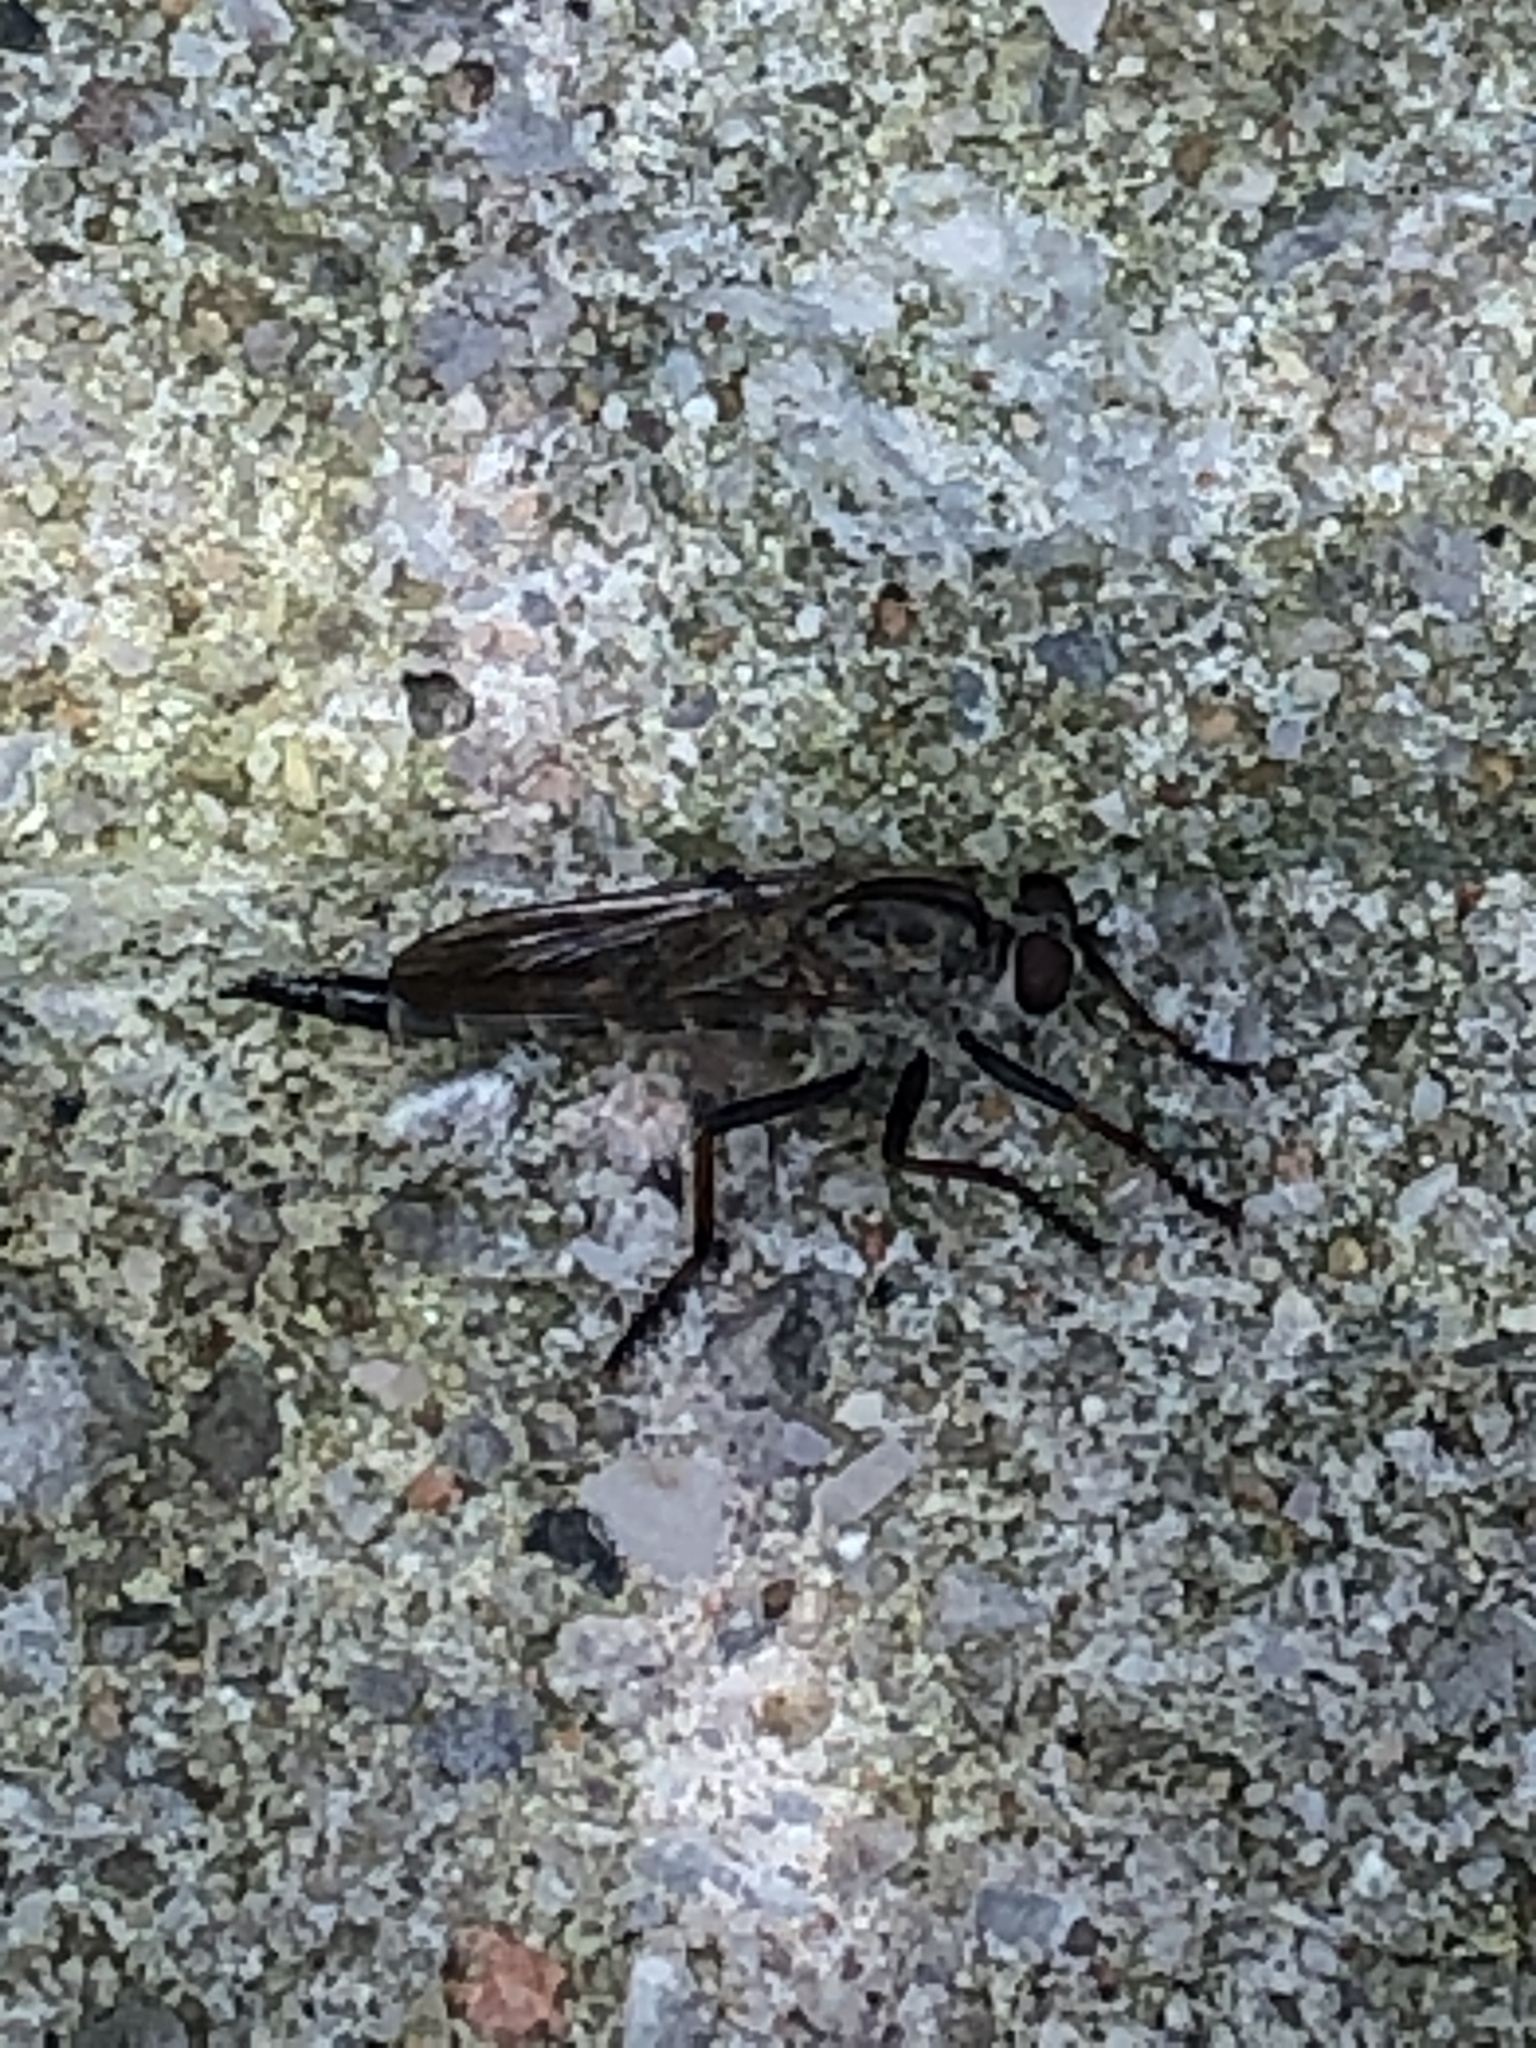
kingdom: Animalia
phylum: Arthropoda
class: Insecta
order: Diptera
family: Asilidae
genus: Machimus
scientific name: Machimus sadyates
